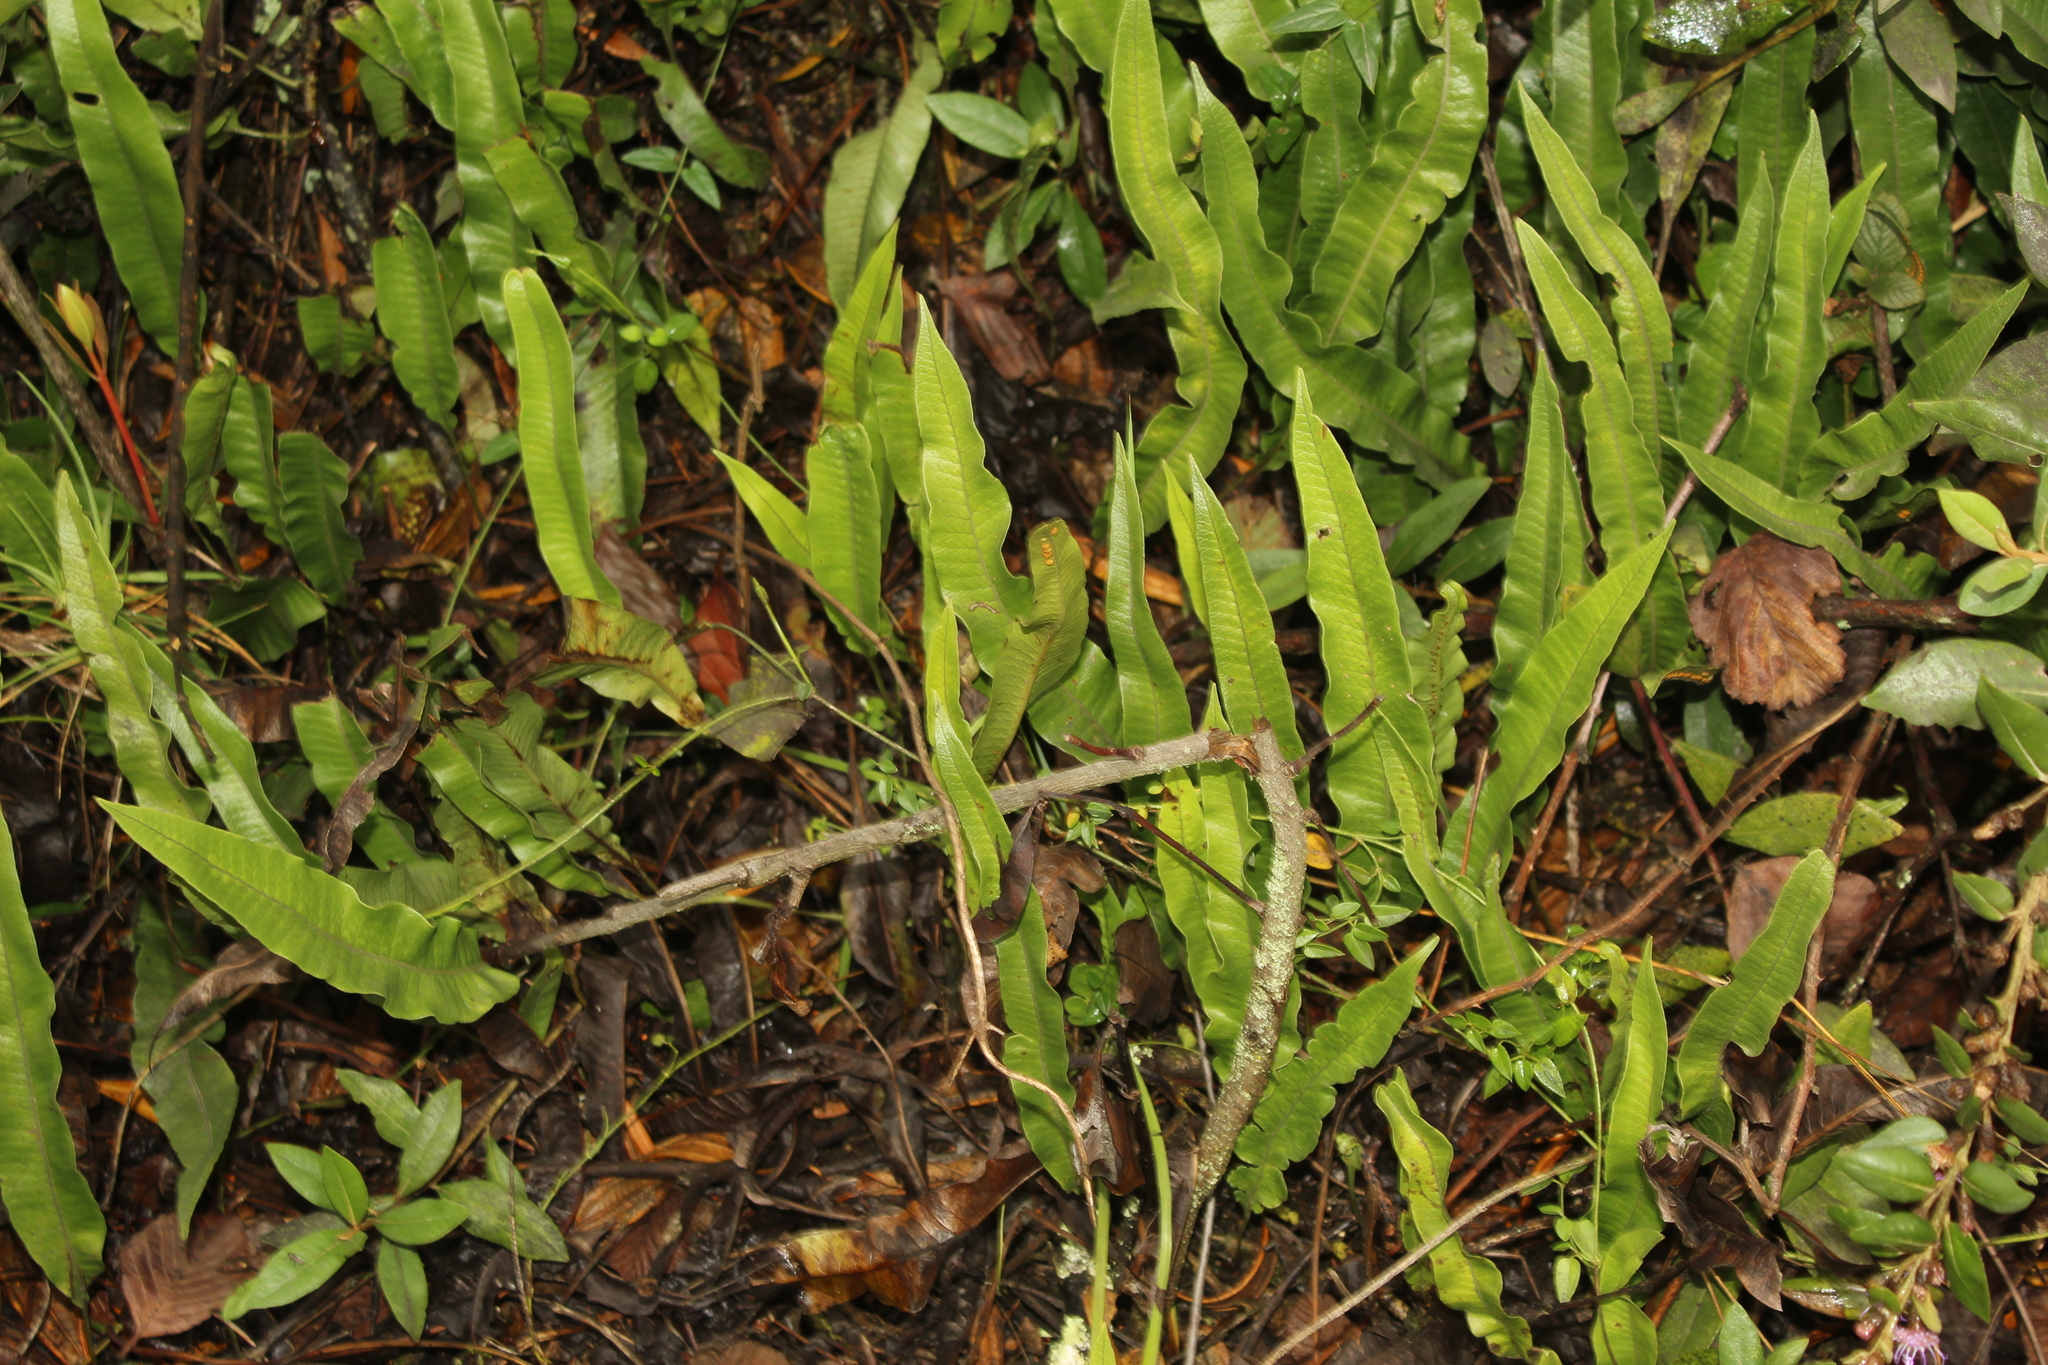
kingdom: Plantae
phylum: Tracheophyta
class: Polypodiopsida
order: Polypodiales
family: Polypodiaceae
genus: Serpocaulon
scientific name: Serpocaulon levigatum
